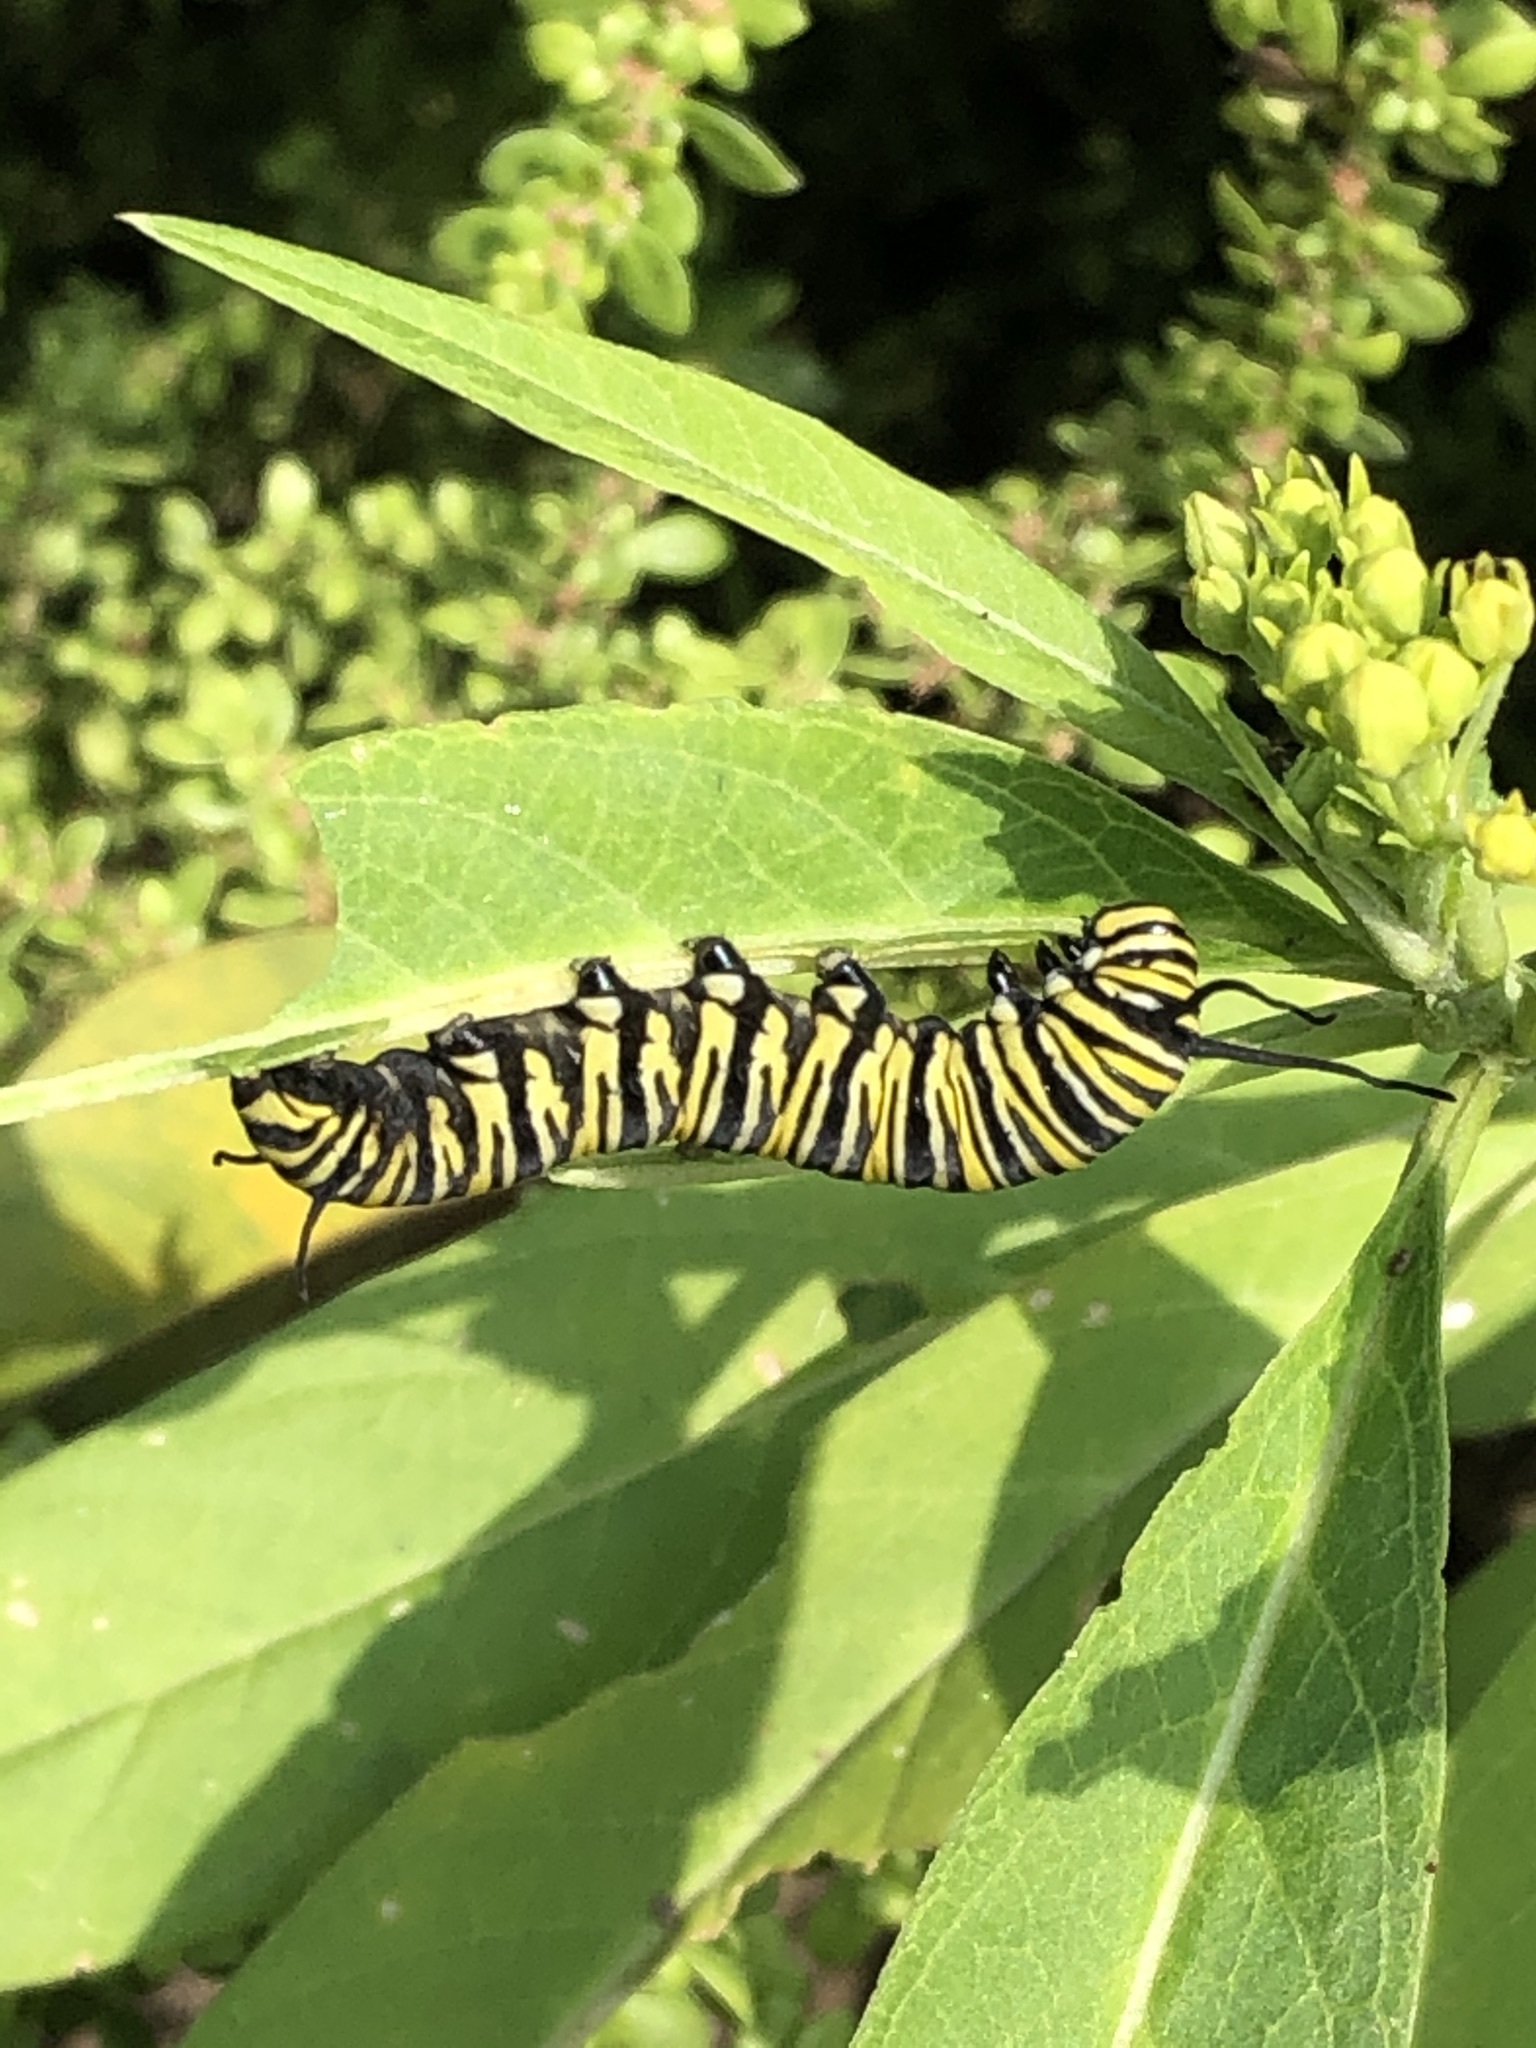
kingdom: Animalia
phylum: Arthropoda
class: Insecta
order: Lepidoptera
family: Nymphalidae
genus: Danaus
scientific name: Danaus plexippus
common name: Monarch
